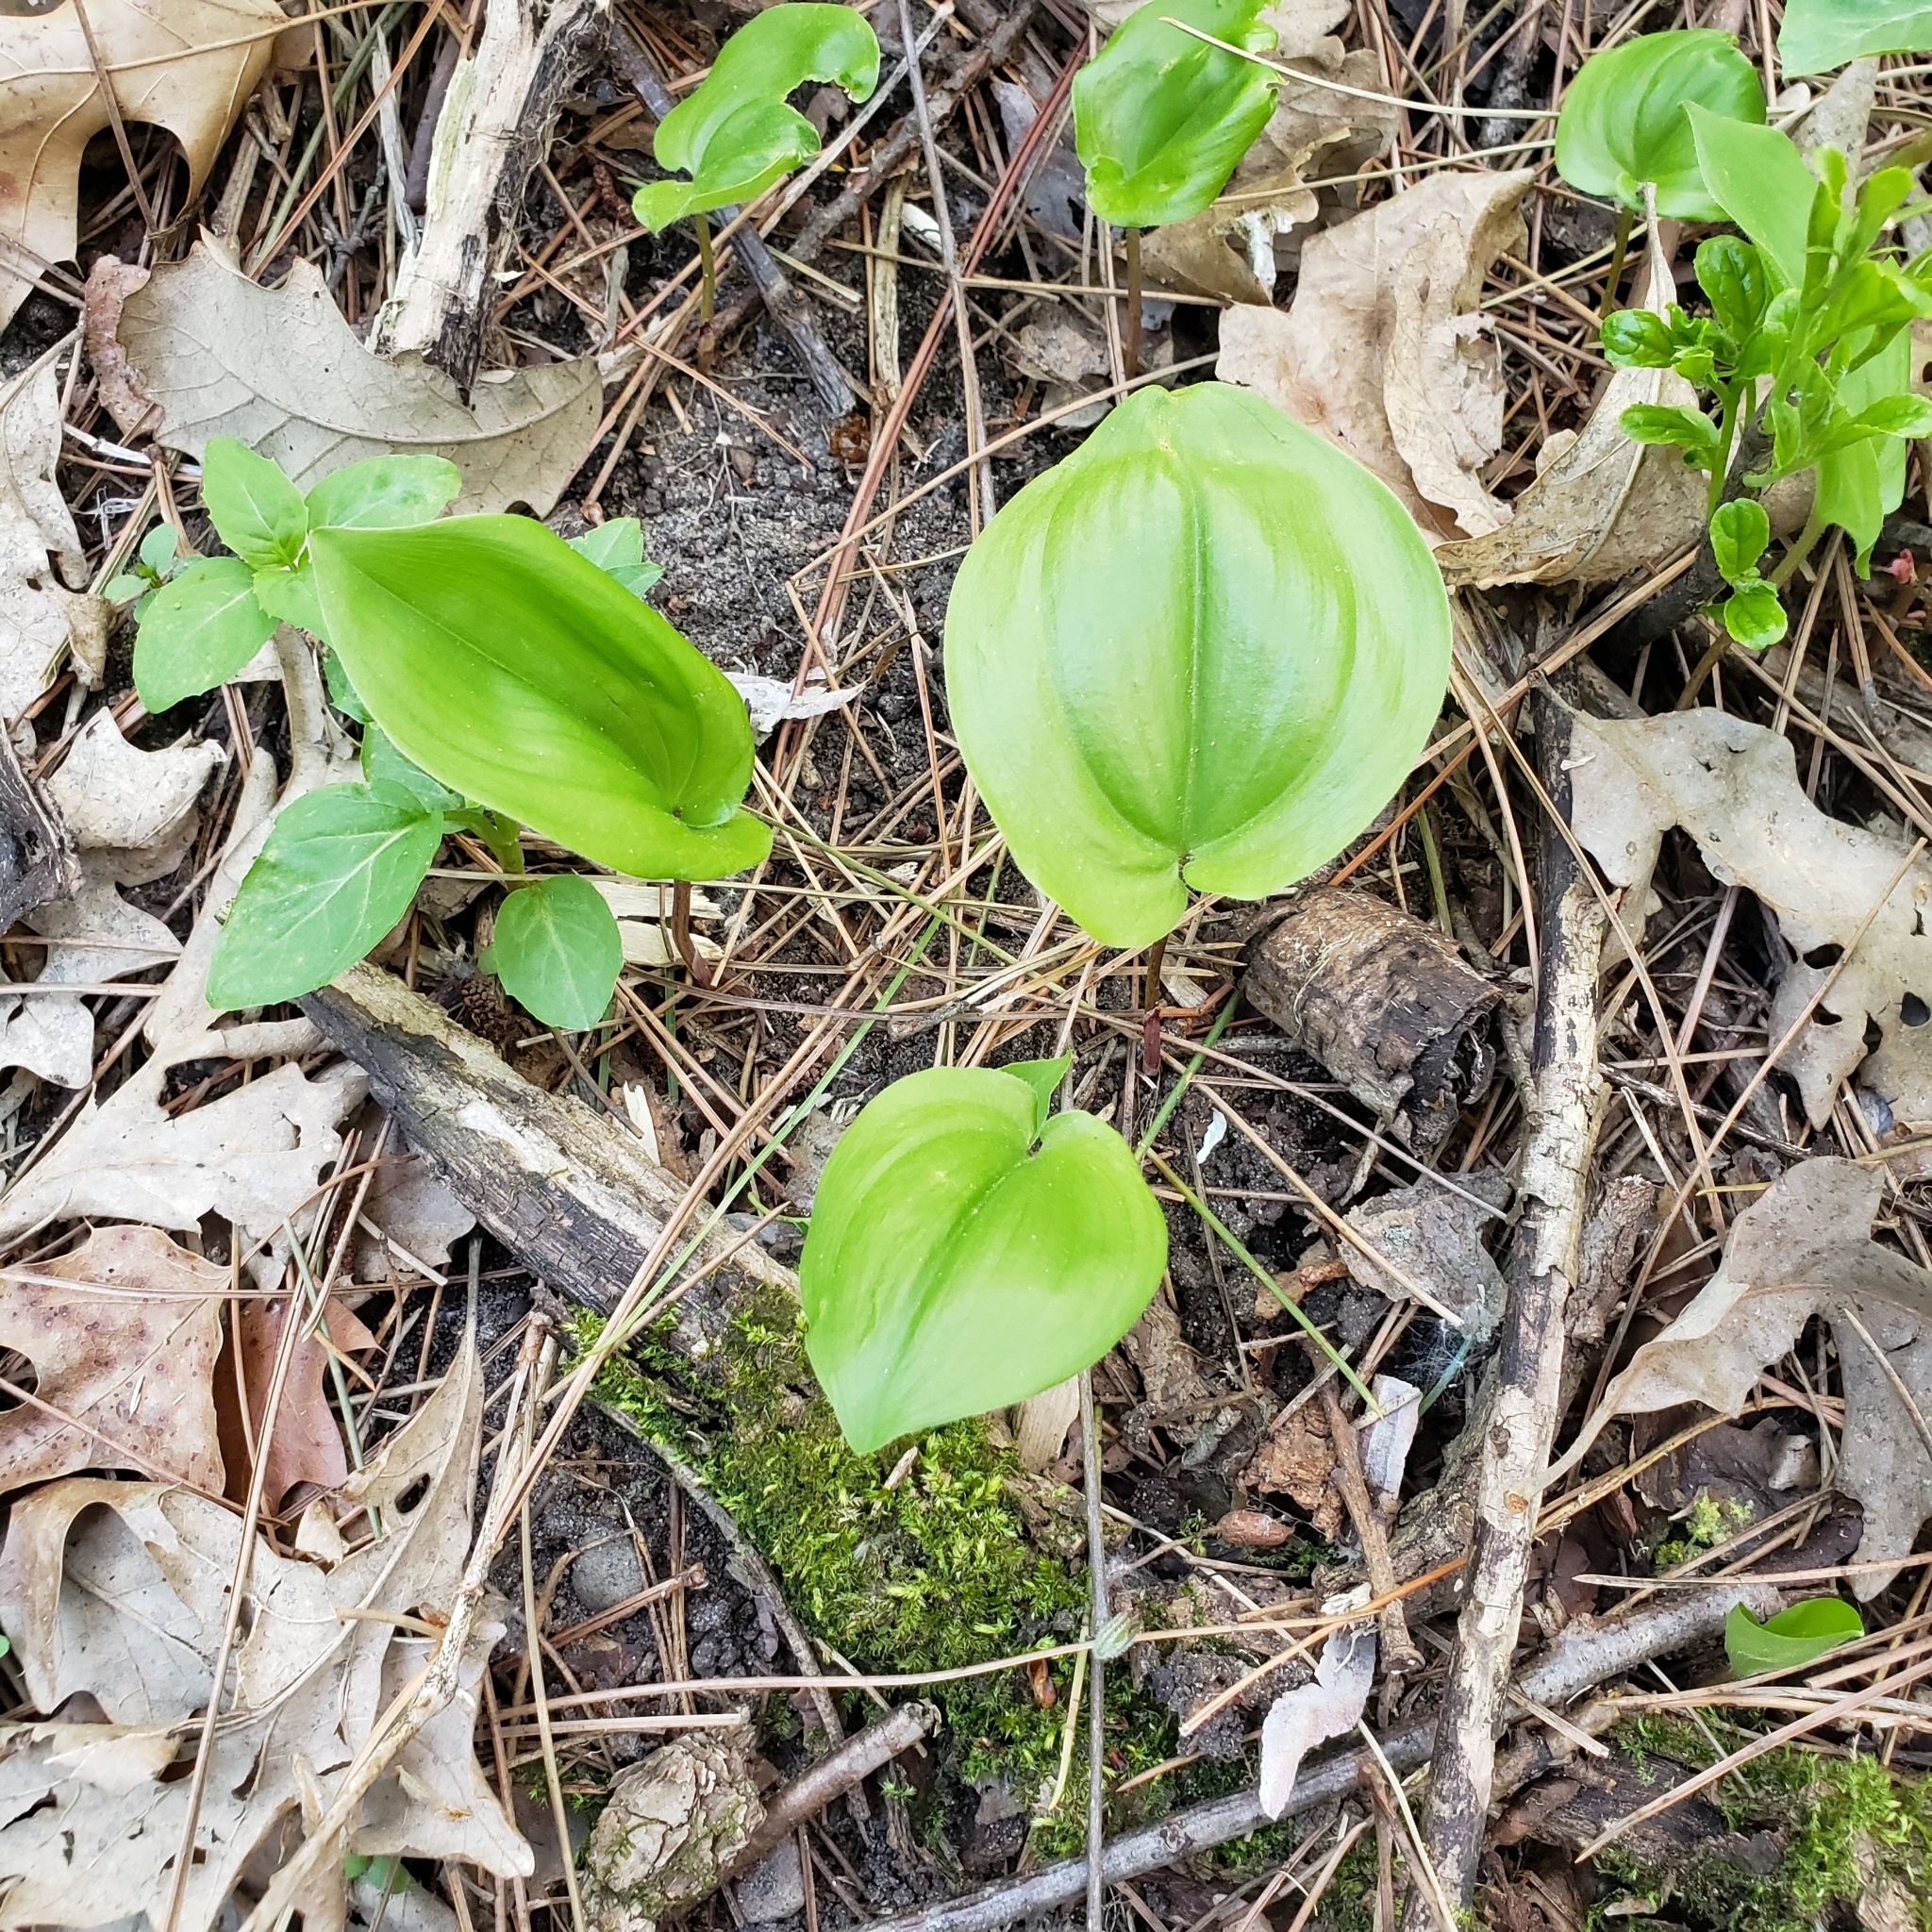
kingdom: Plantae
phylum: Tracheophyta
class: Liliopsida
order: Asparagales
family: Asparagaceae
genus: Maianthemum
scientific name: Maianthemum canadense
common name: False lily-of-the-valley
